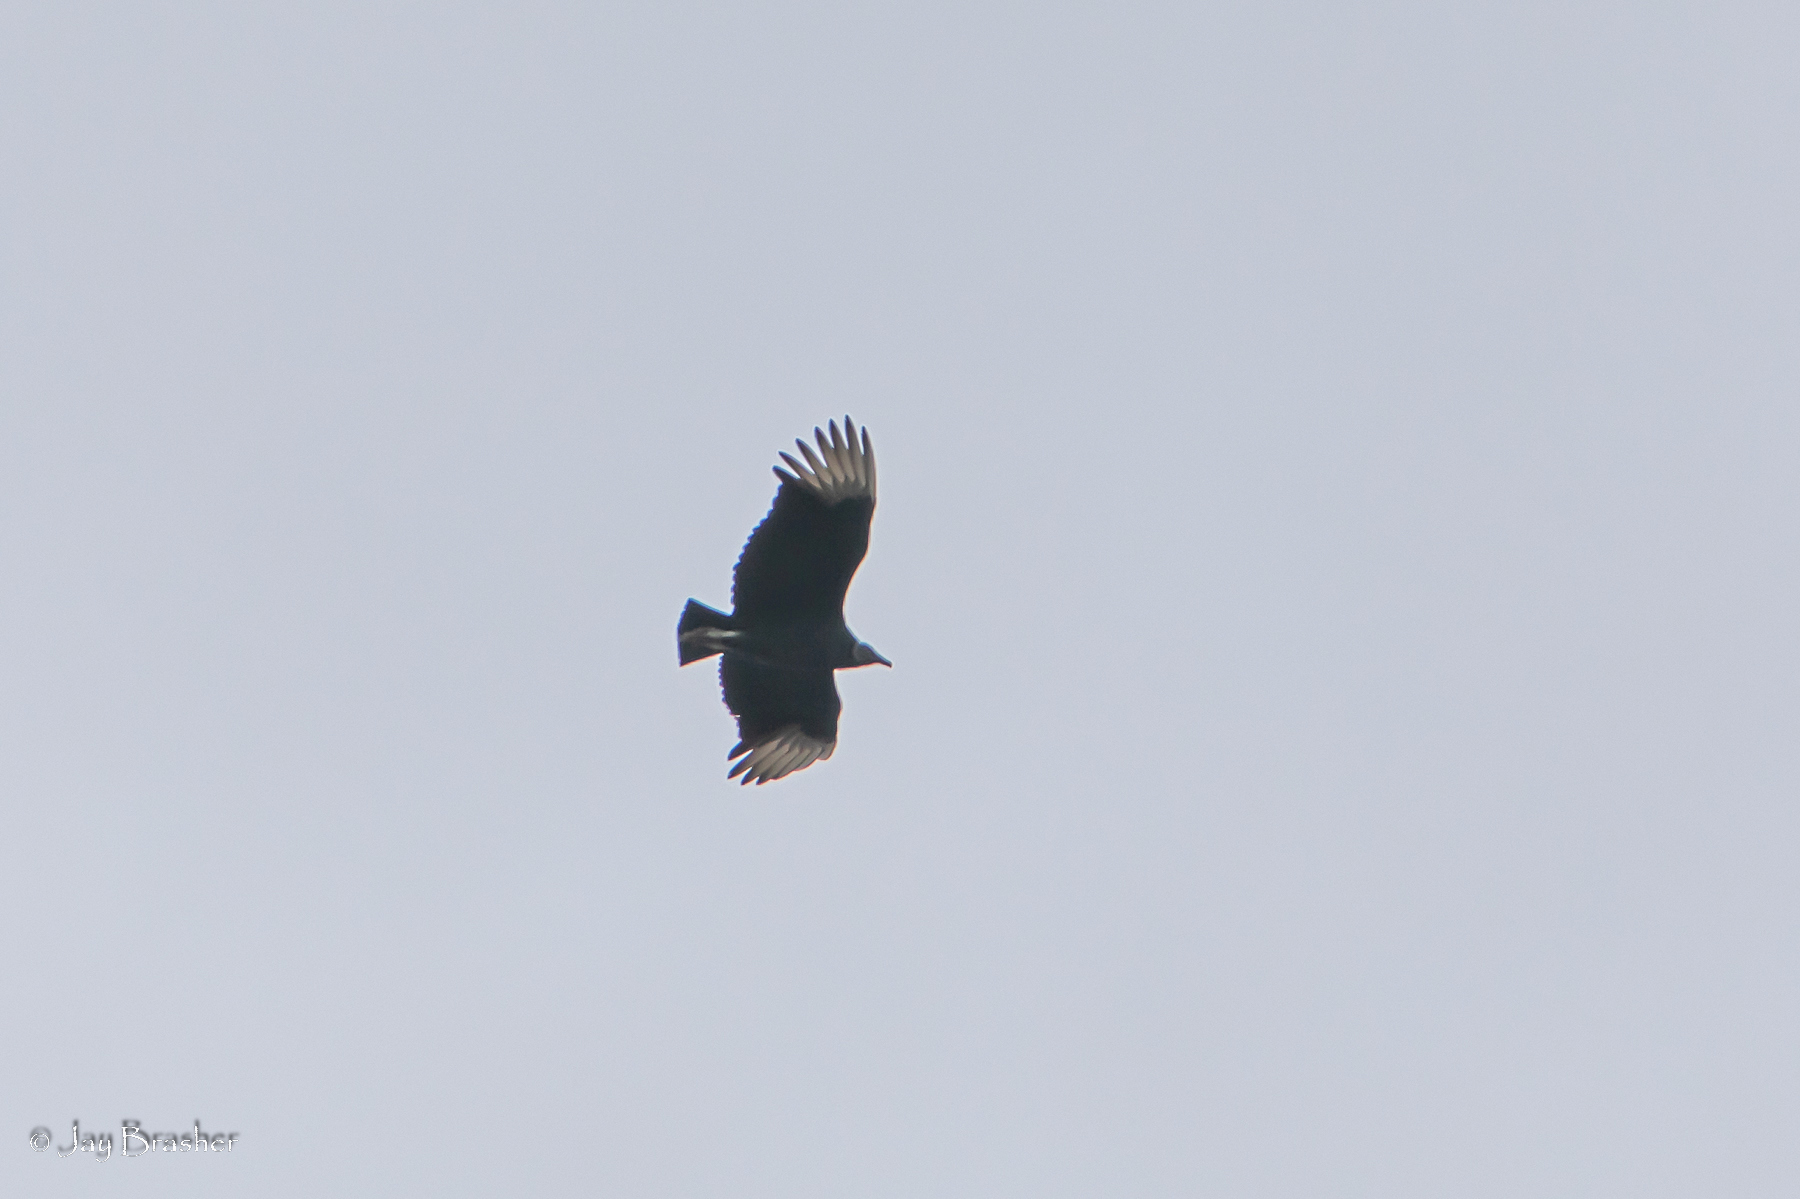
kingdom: Animalia
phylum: Chordata
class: Aves
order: Accipitriformes
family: Cathartidae
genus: Coragyps
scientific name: Coragyps atratus
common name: Black vulture
